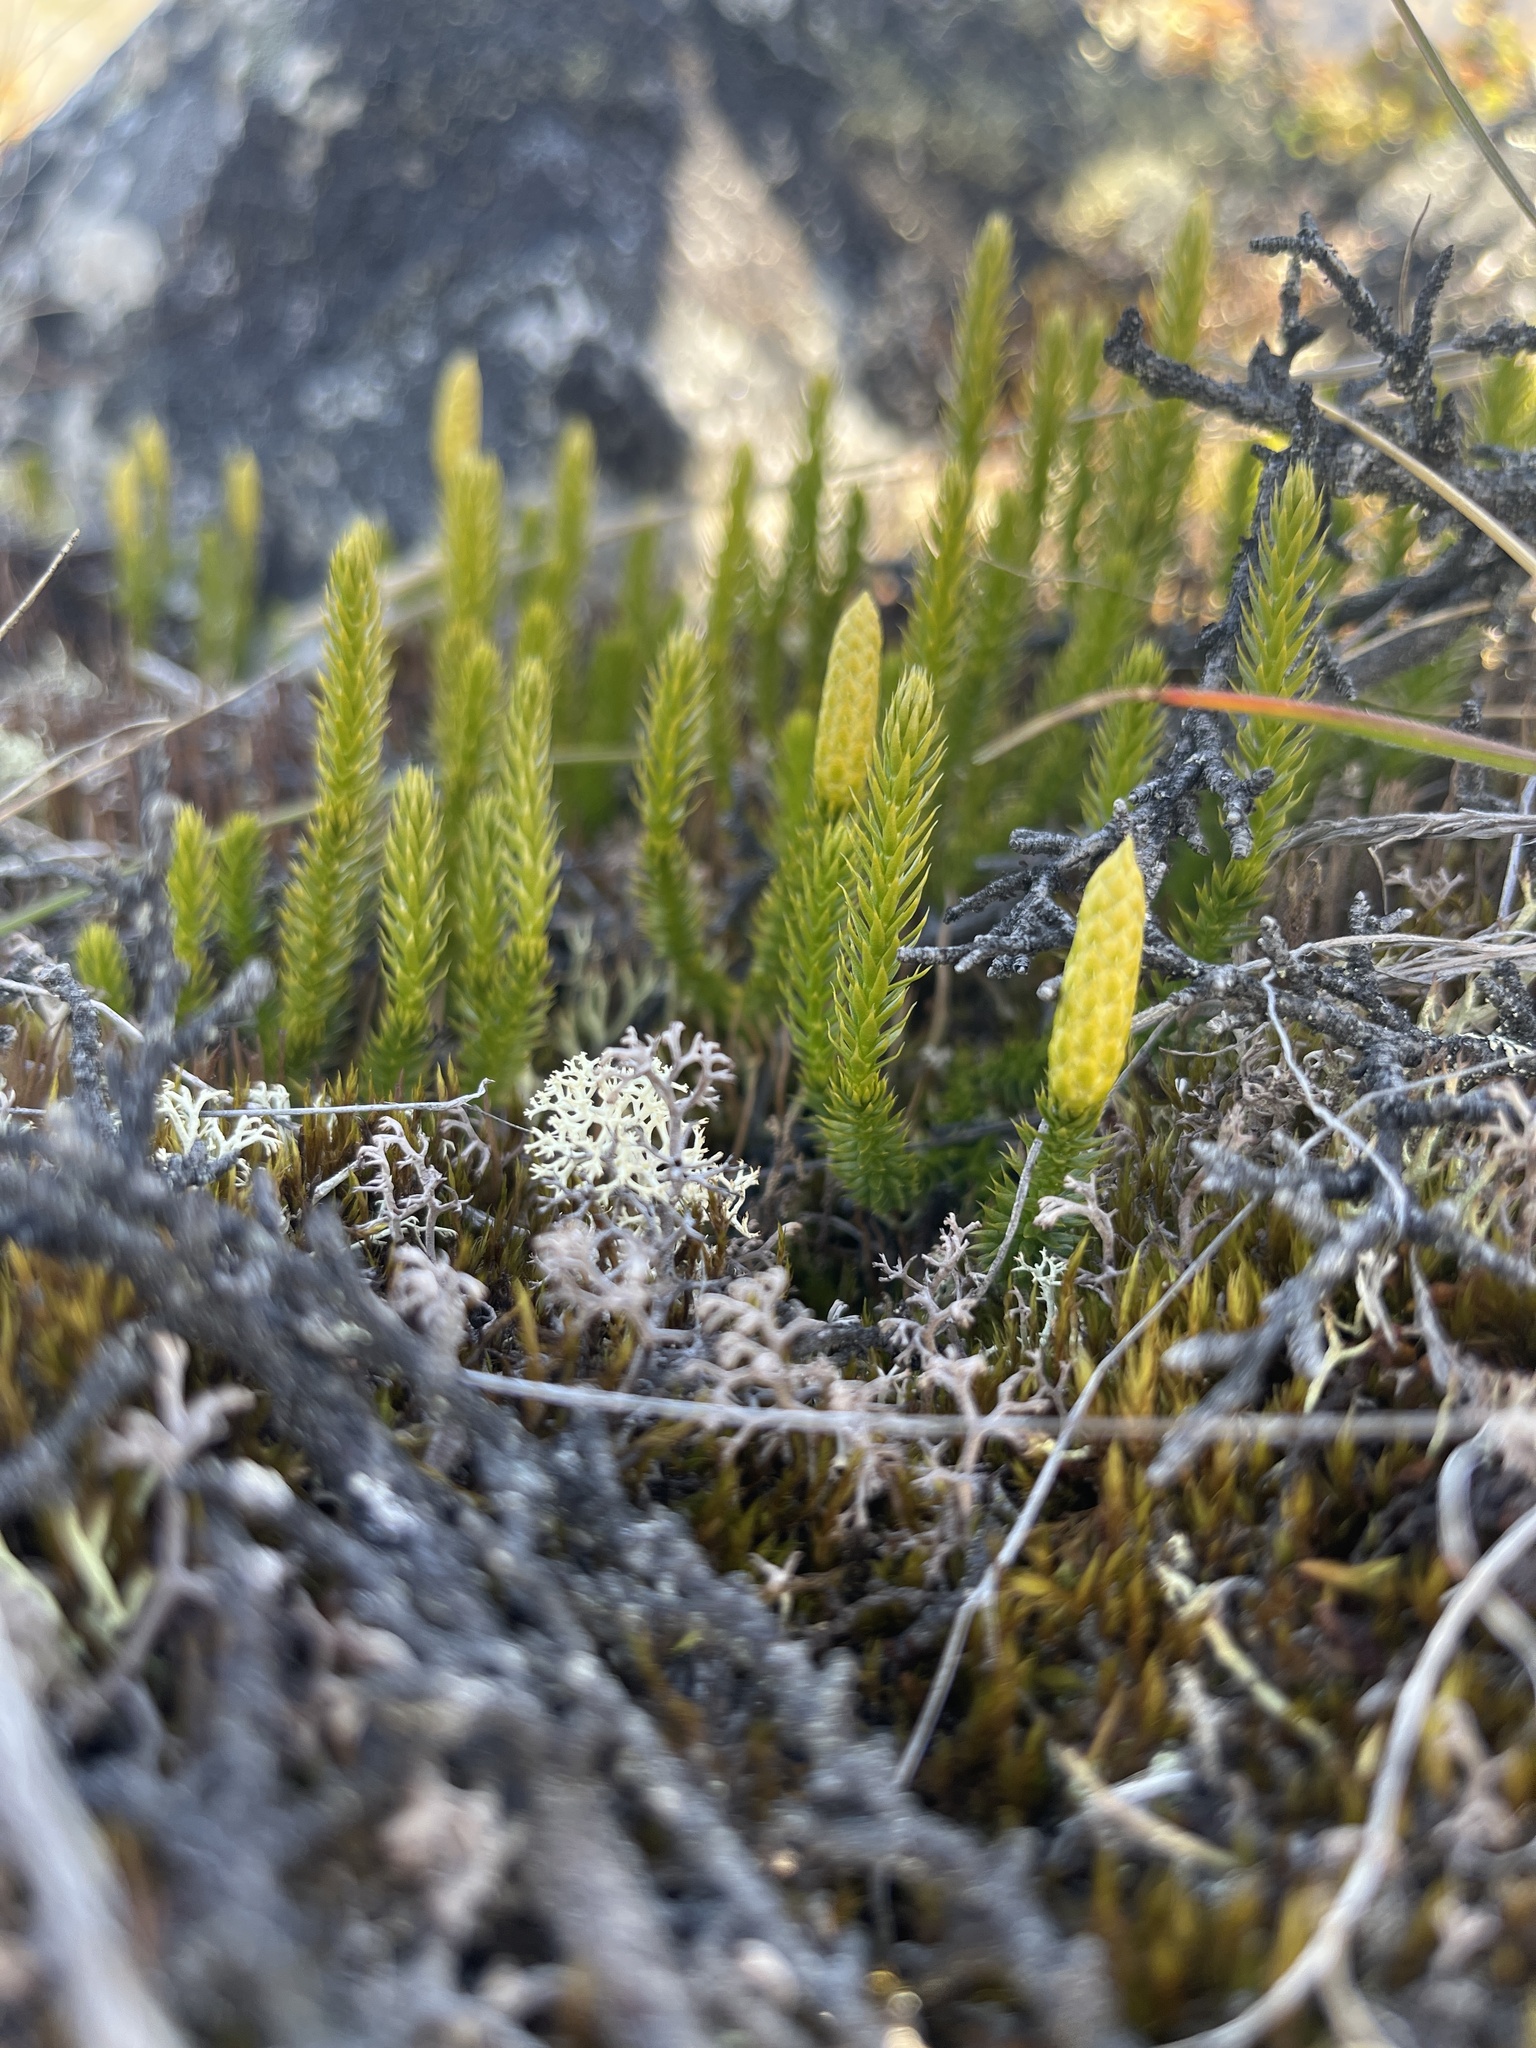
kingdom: Plantae
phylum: Tracheophyta
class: Lycopodiopsida
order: Lycopodiales
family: Lycopodiaceae
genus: Spinulum
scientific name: Spinulum annotinum
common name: Interrupted club-moss
